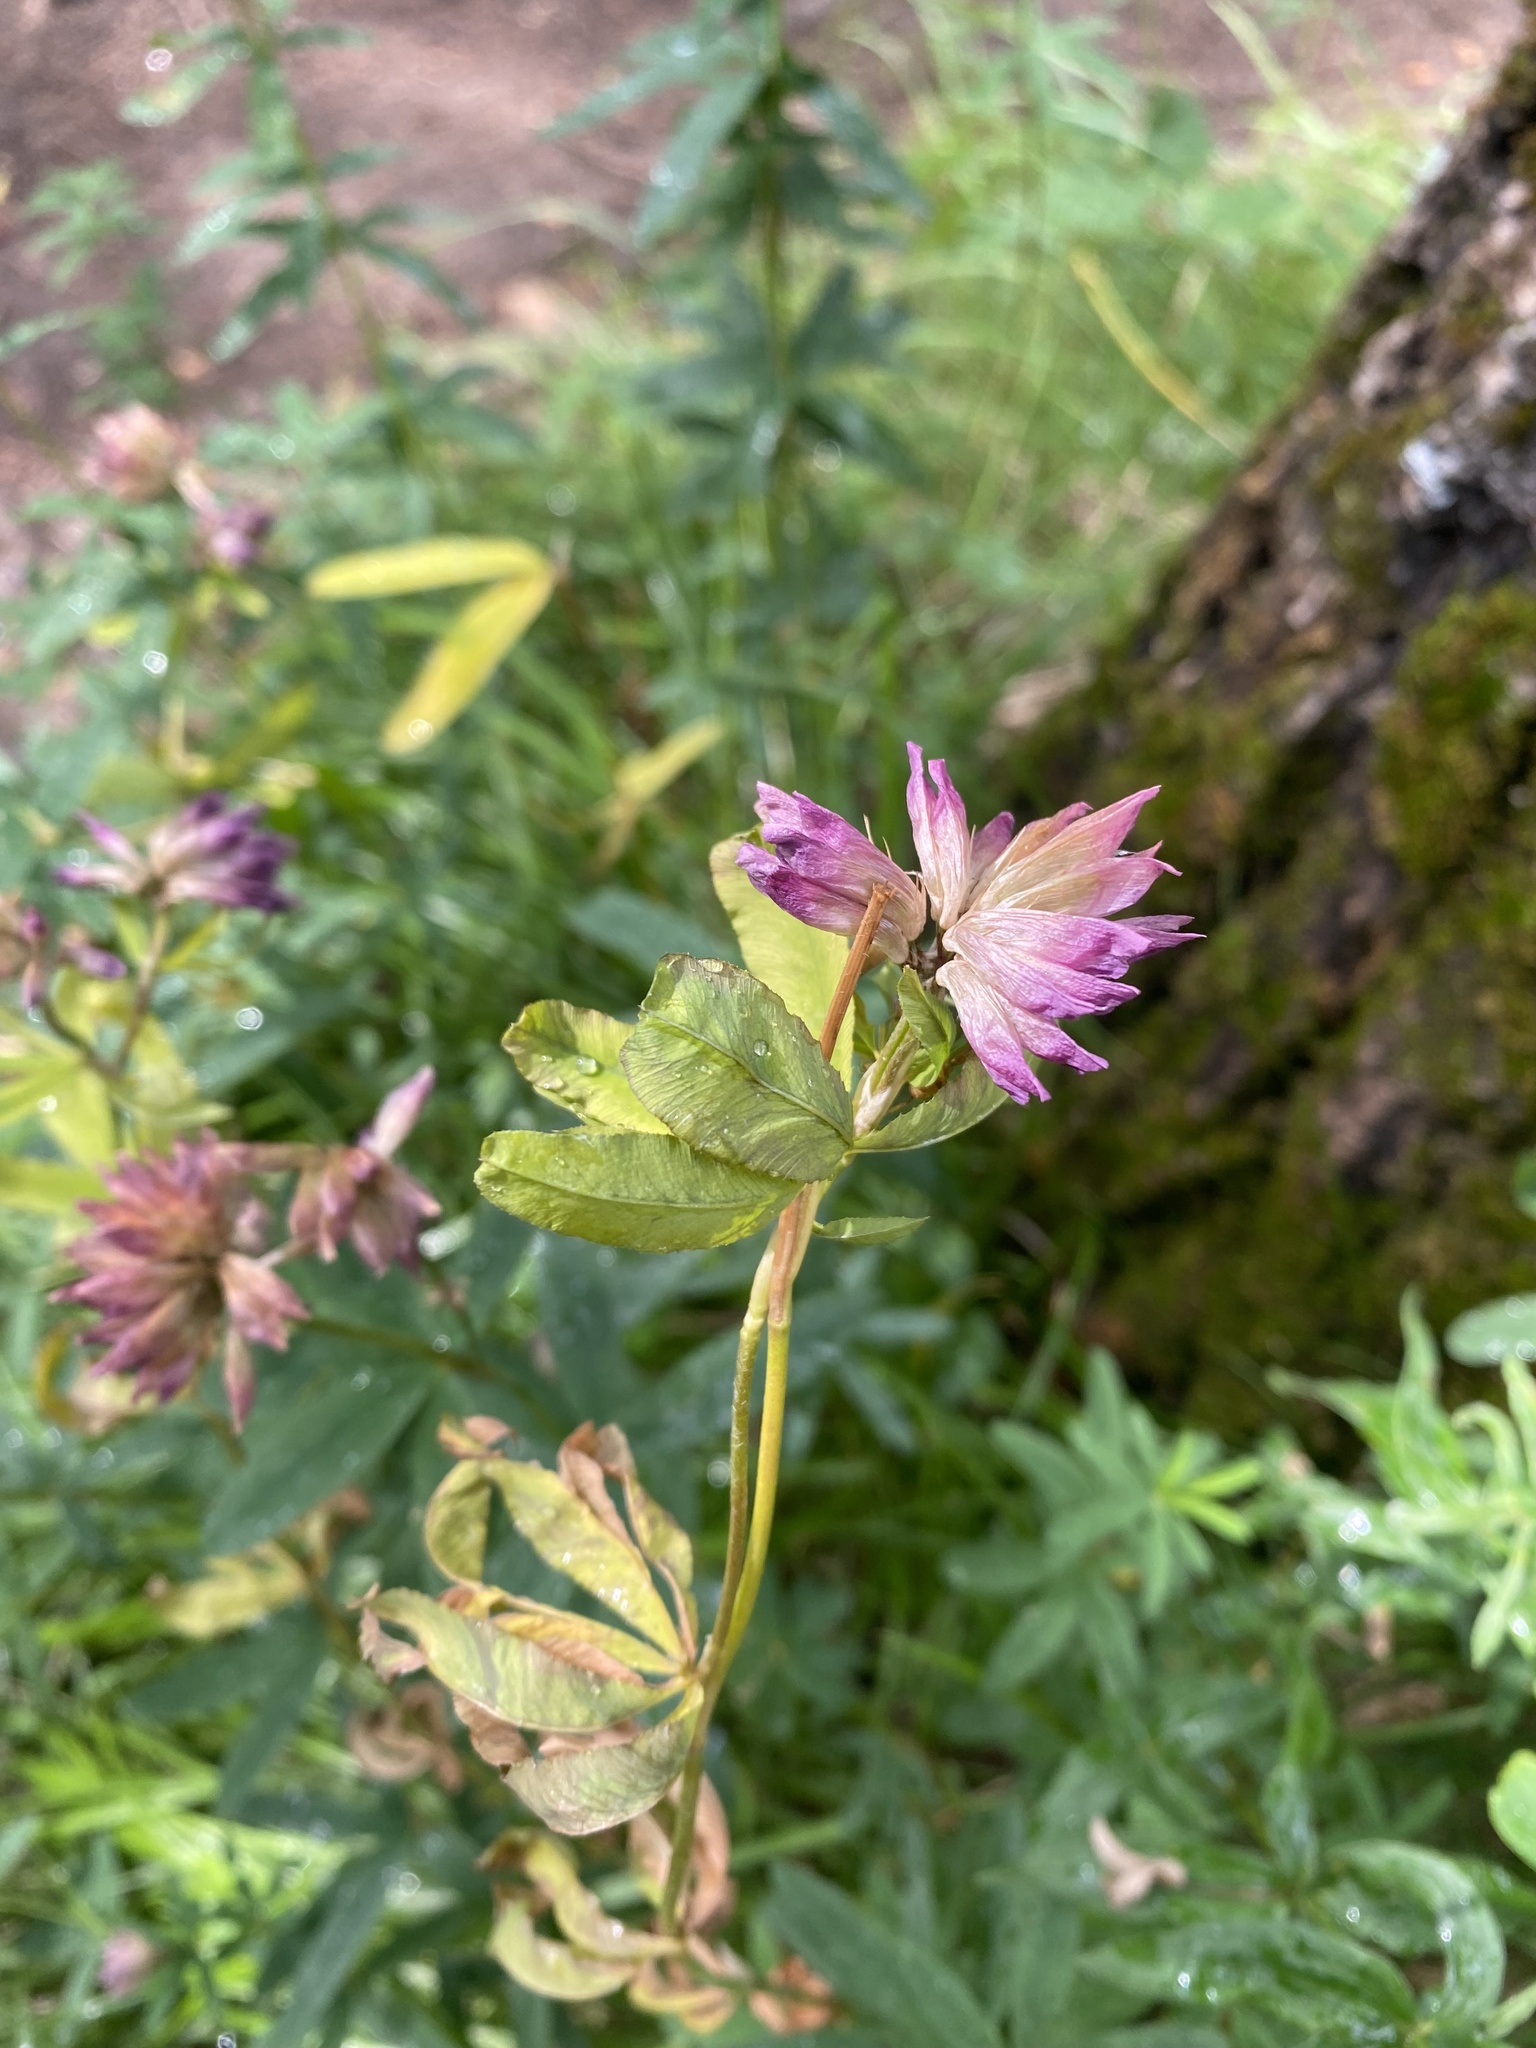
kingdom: Plantae
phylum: Tracheophyta
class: Magnoliopsida
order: Fabales
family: Fabaceae
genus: Trifolium
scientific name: Trifolium lupinaster
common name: Lupine clover
